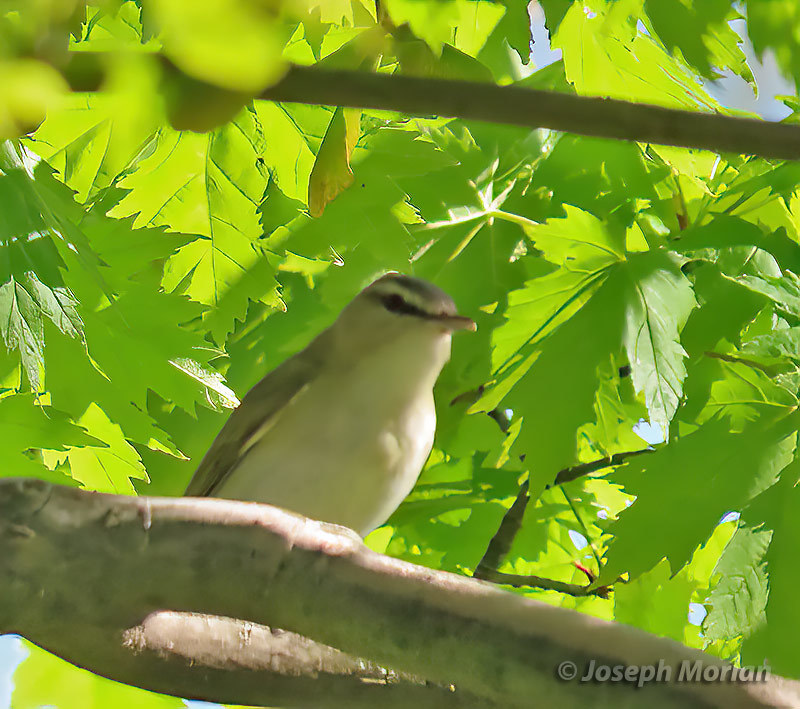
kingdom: Animalia
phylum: Chordata
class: Aves
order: Passeriformes
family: Vireonidae
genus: Vireo
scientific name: Vireo olivaceus
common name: Red-eyed vireo
